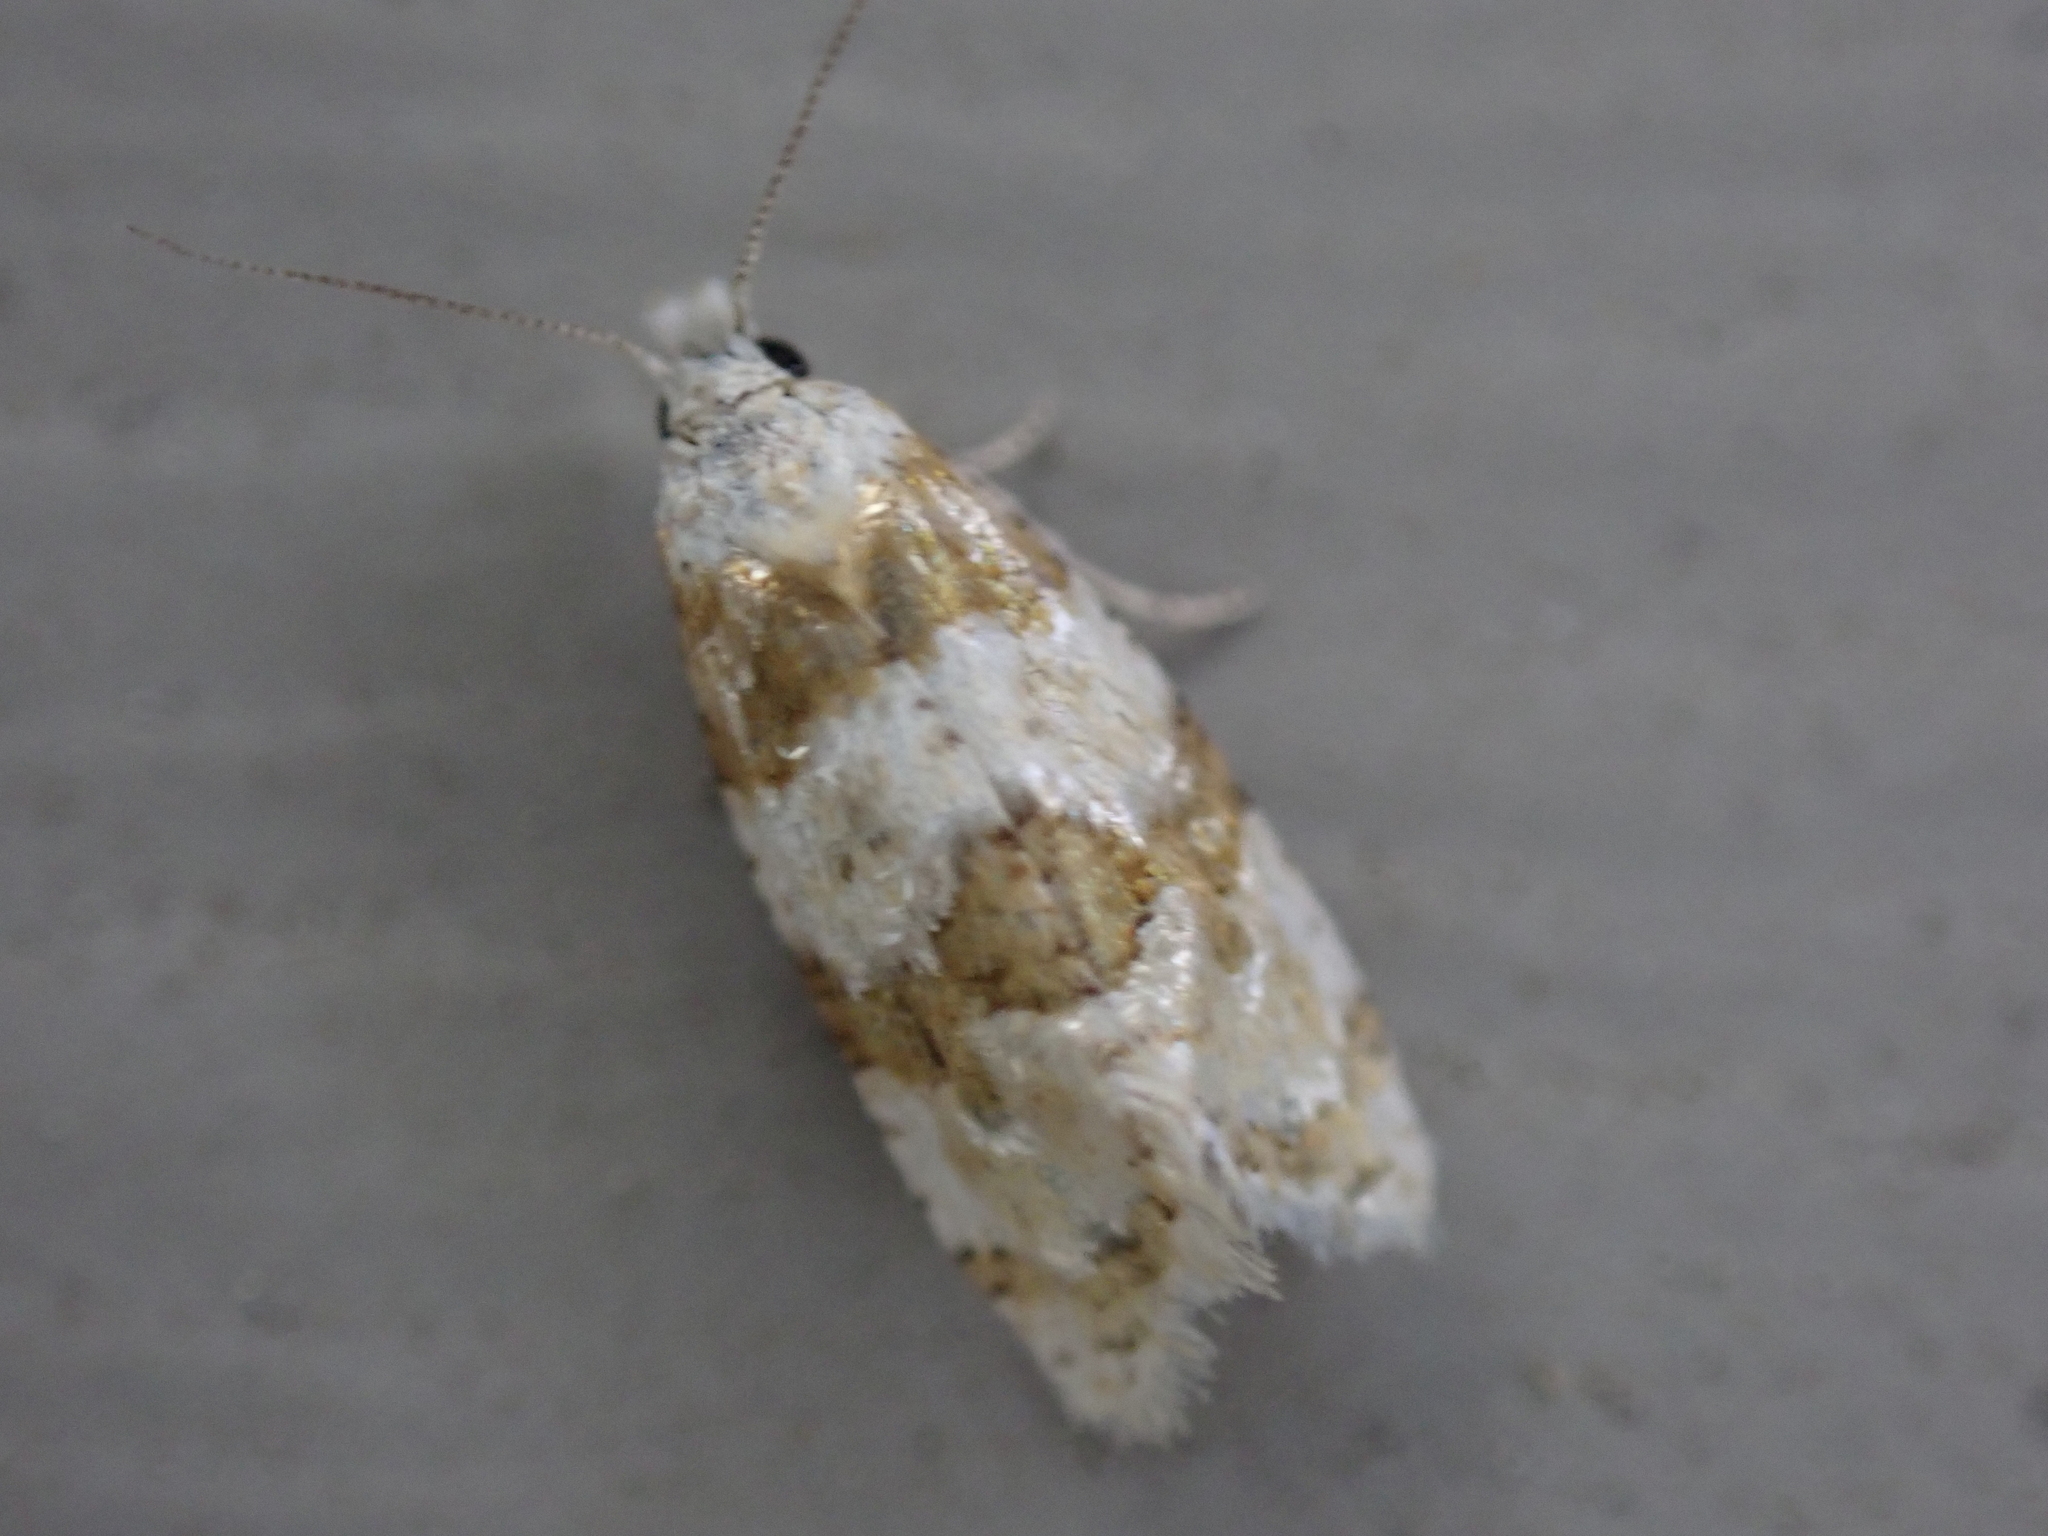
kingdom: Animalia
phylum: Arthropoda
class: Insecta
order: Lepidoptera
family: Tortricidae
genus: Aethes
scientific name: Aethes argentilimitana
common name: Silver-bordered aethes
